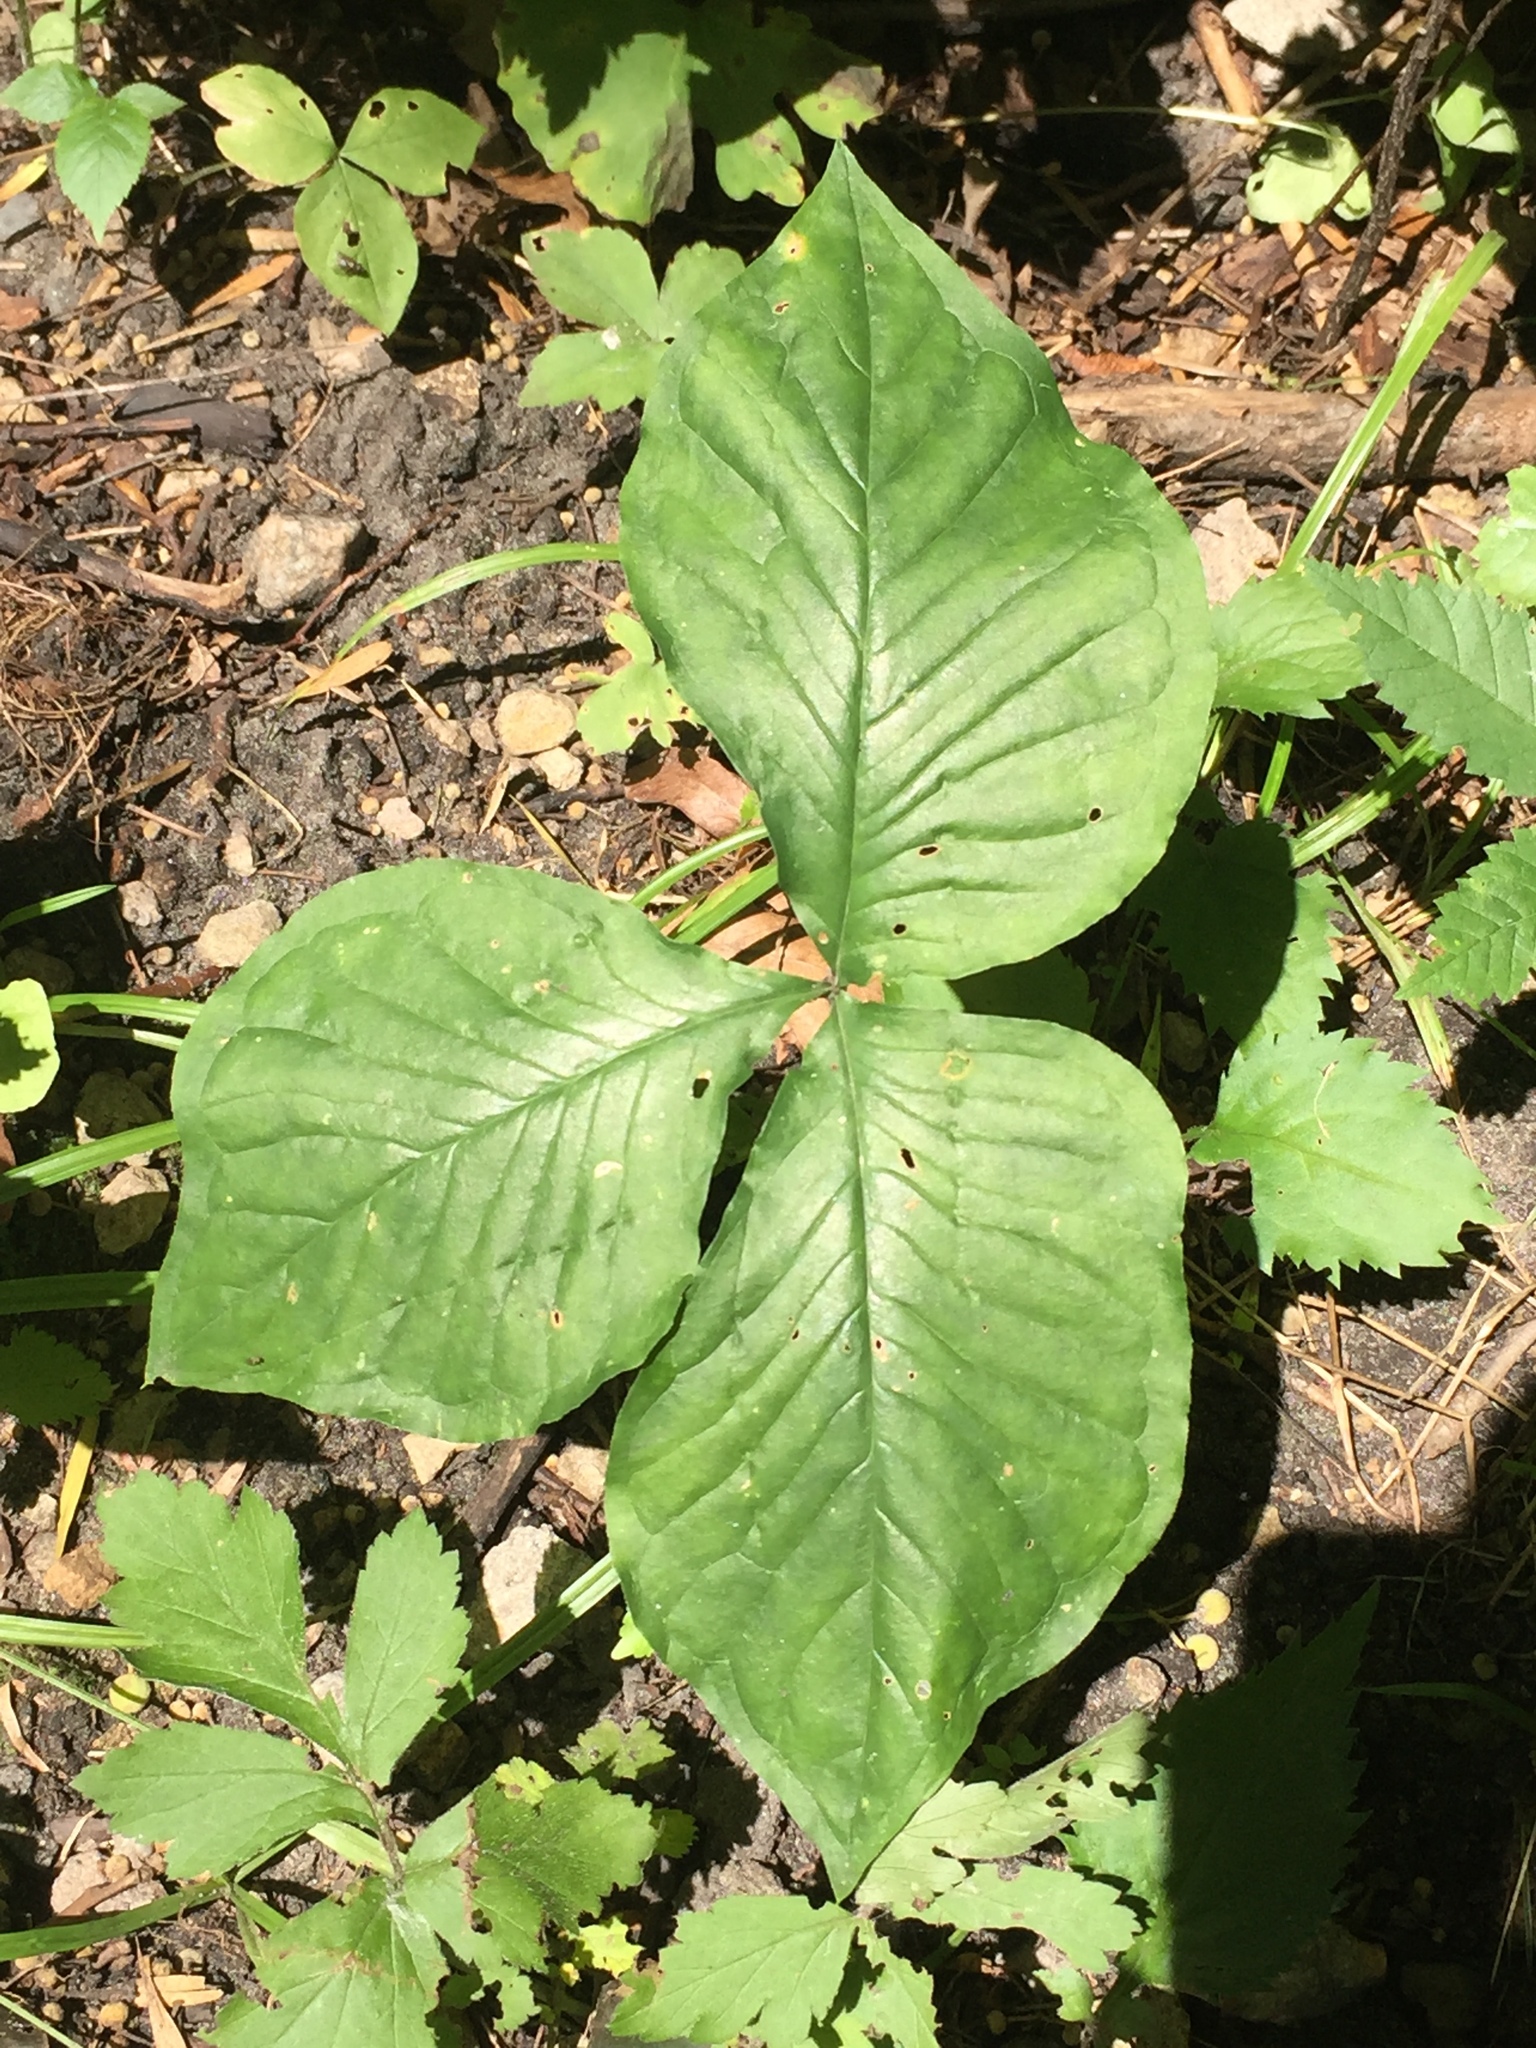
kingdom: Plantae
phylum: Tracheophyta
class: Liliopsida
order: Alismatales
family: Araceae
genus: Arisaema
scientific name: Arisaema triphyllum
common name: Jack-in-the-pulpit
